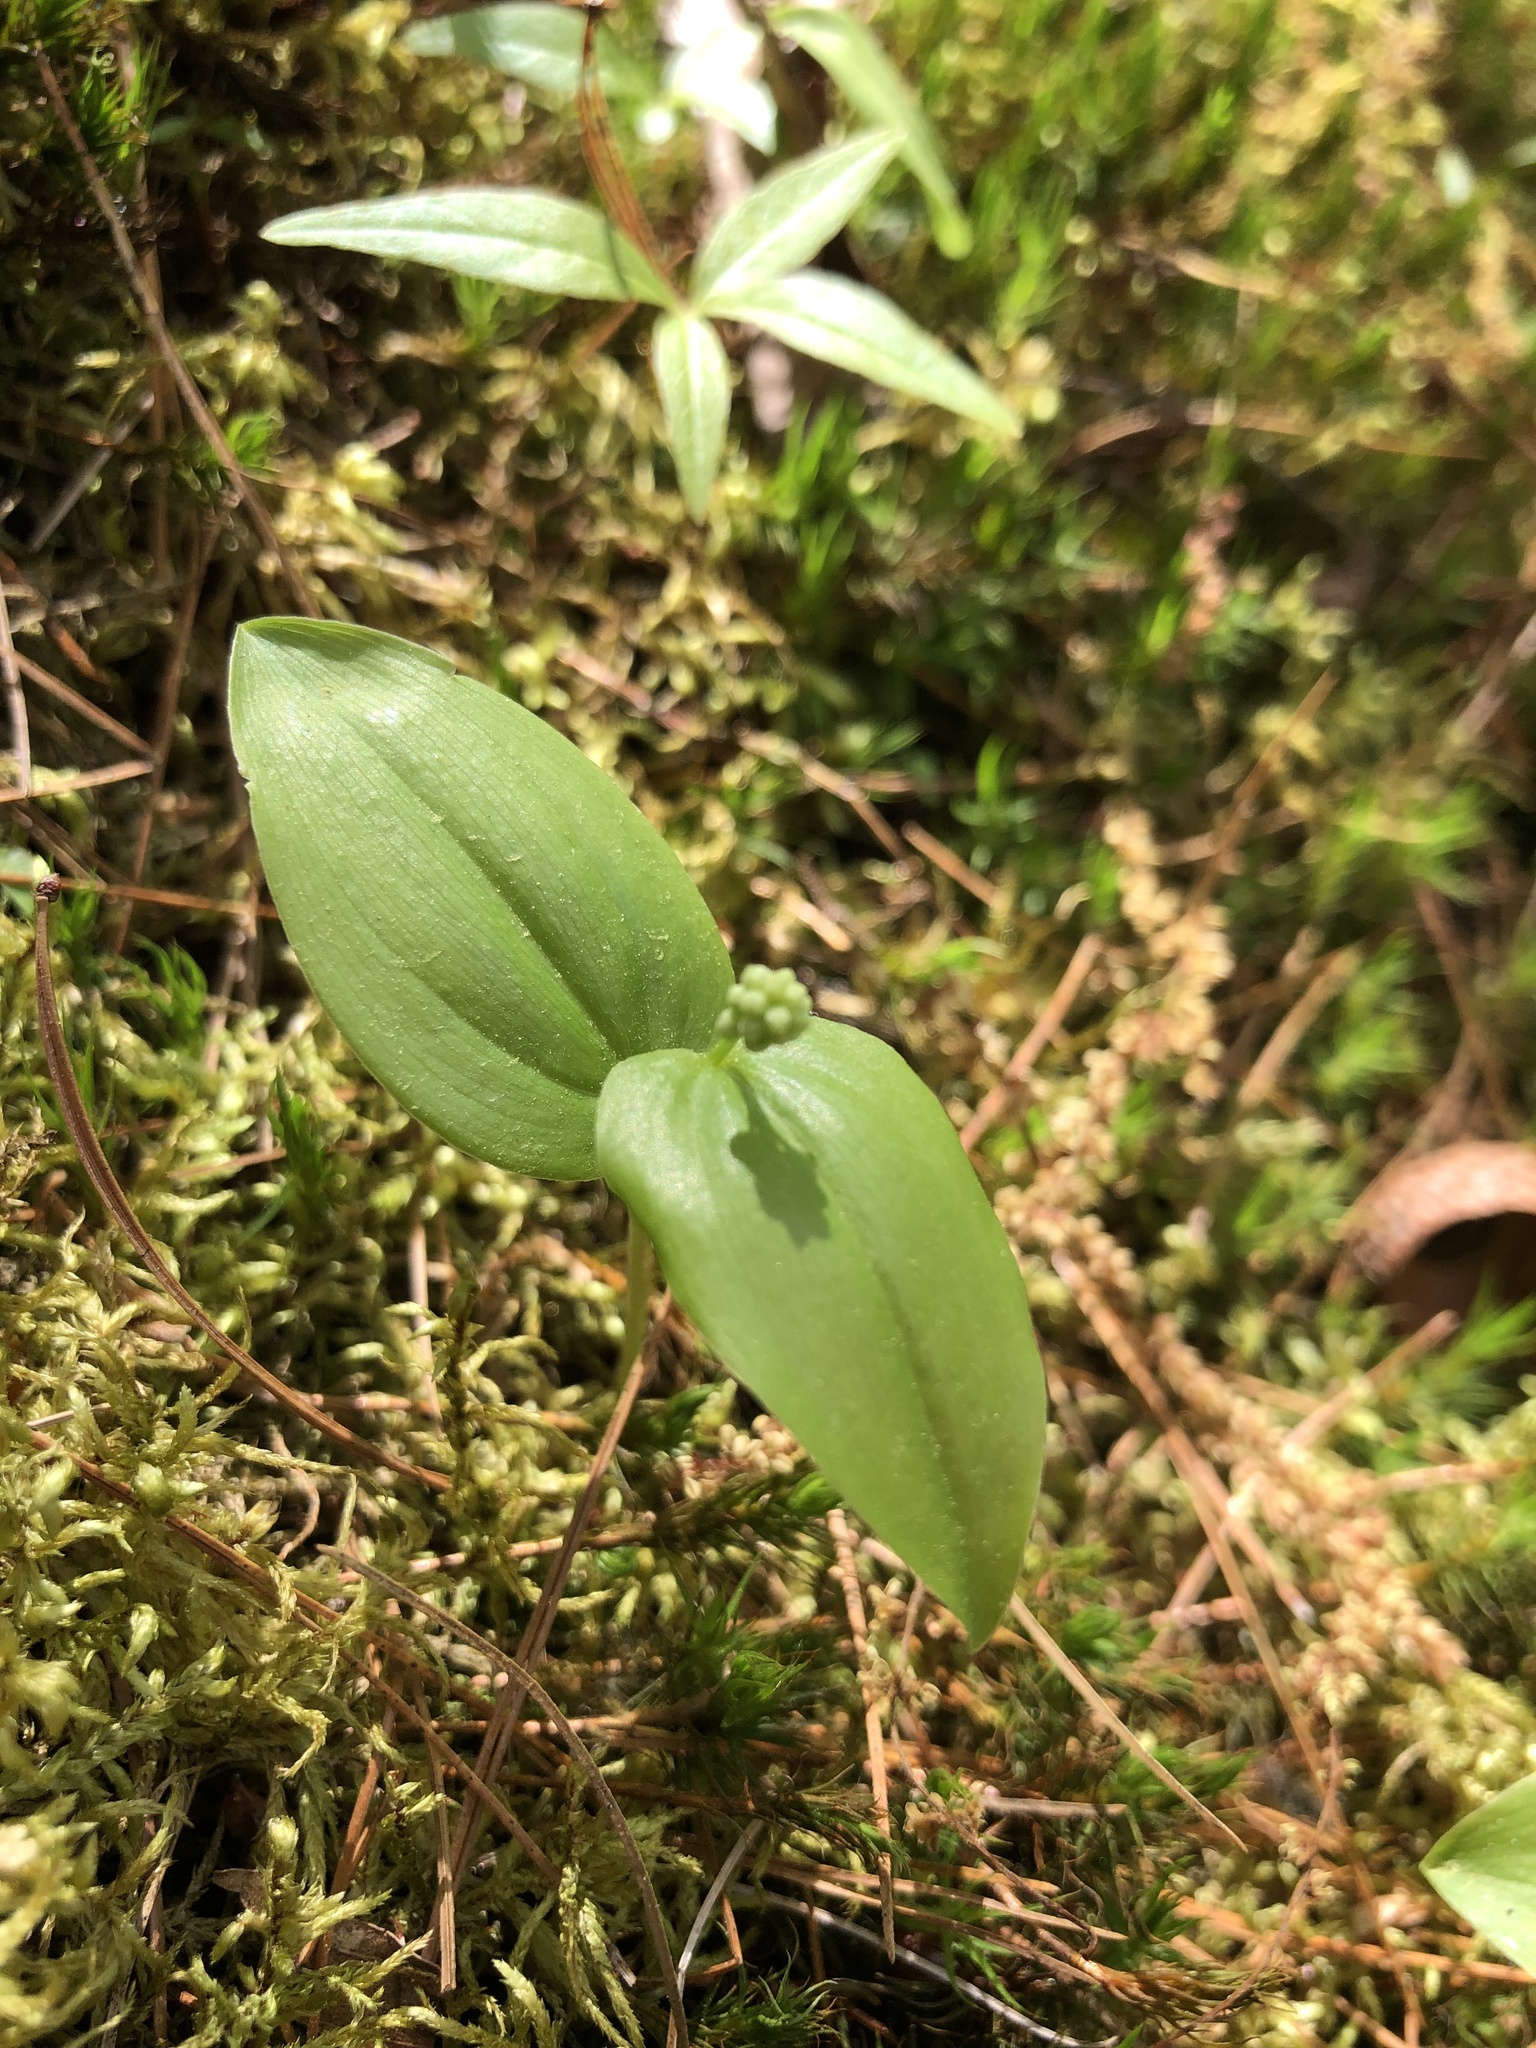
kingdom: Plantae
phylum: Tracheophyta
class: Liliopsida
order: Asparagales
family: Asparagaceae
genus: Maianthemum
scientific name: Maianthemum canadense
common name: False lily-of-the-valley
